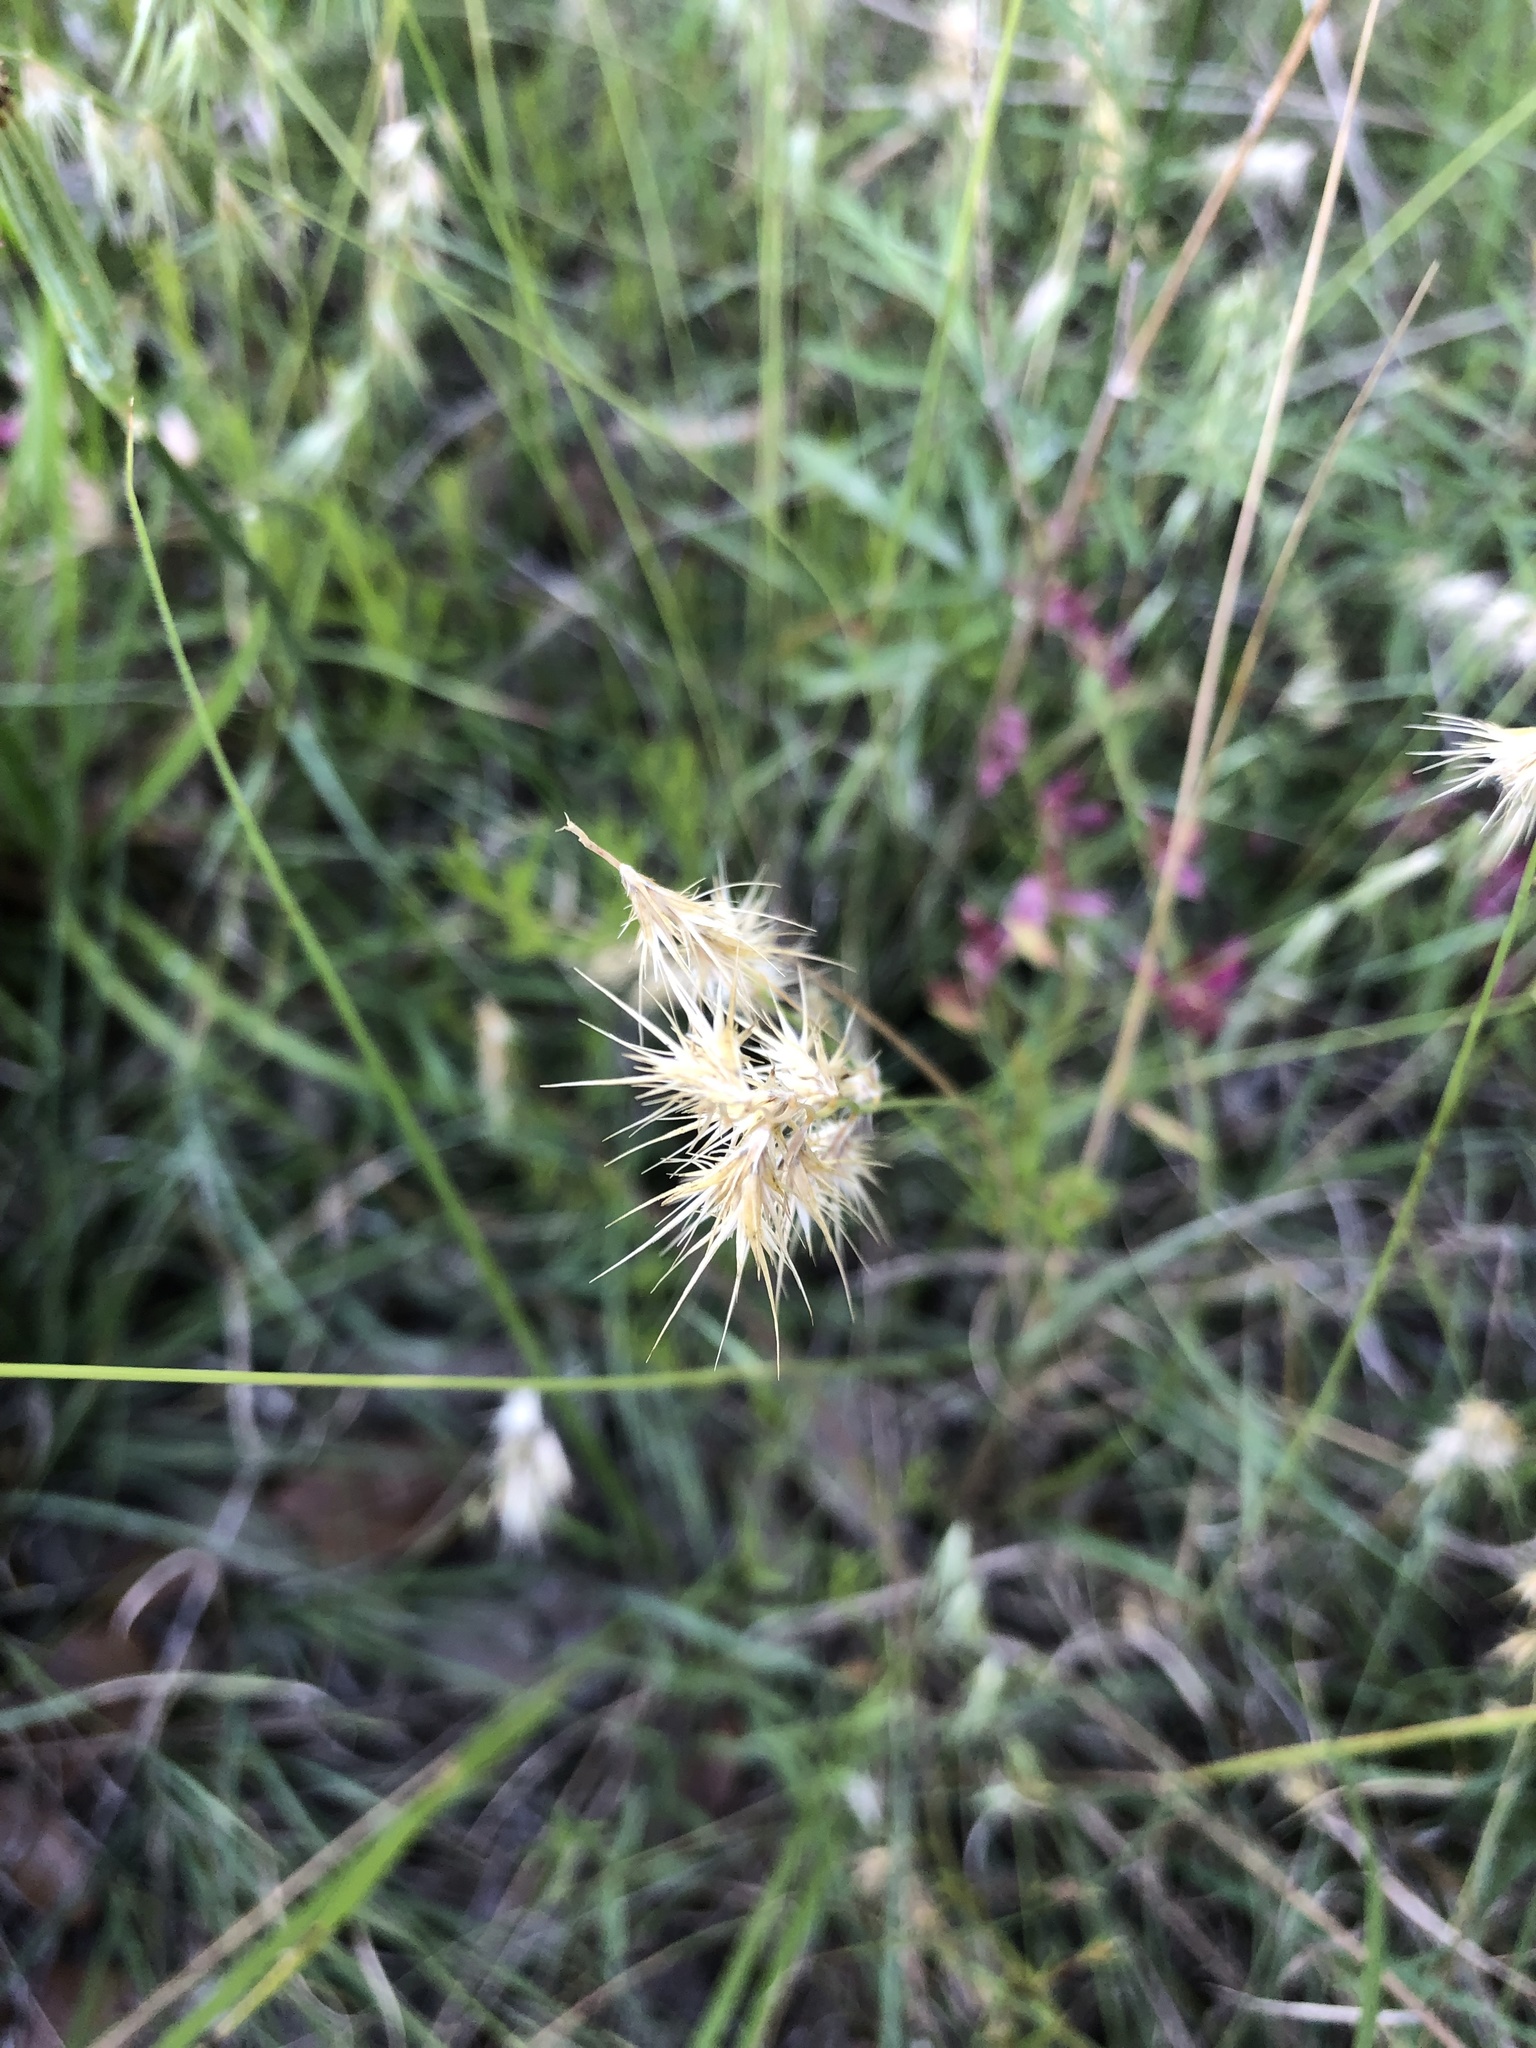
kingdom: Plantae
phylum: Tracheophyta
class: Liliopsida
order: Poales
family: Poaceae
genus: Bouteloua
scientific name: Bouteloua rigidiseta
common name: Texas grama
